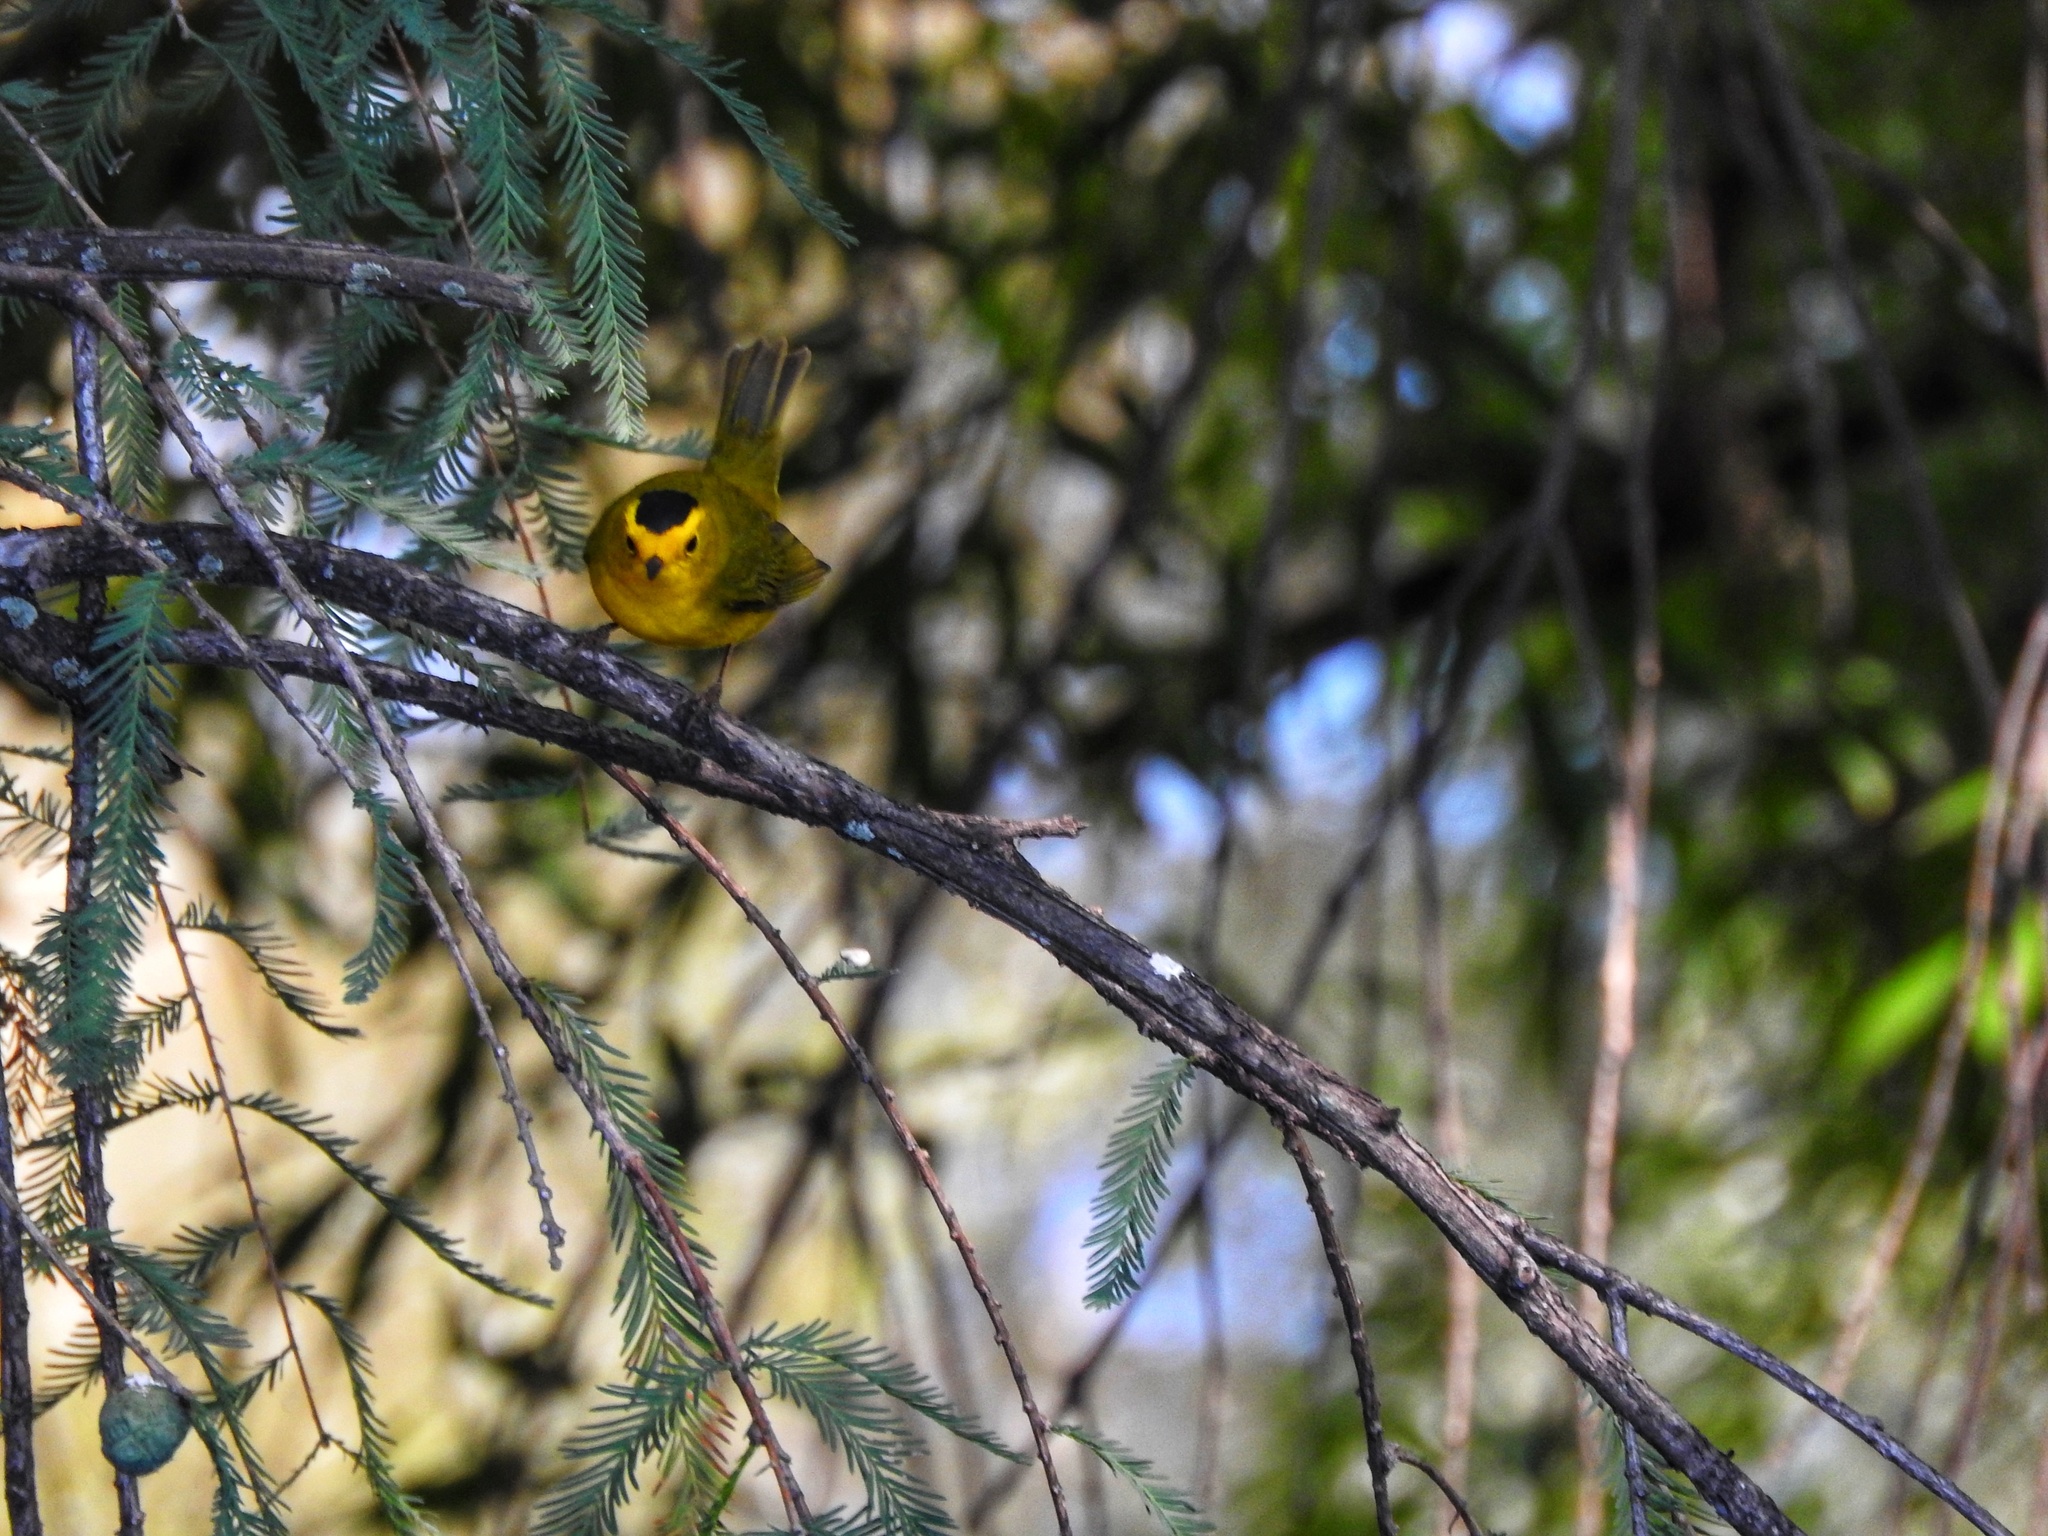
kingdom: Animalia
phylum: Chordata
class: Aves
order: Passeriformes
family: Parulidae
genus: Cardellina
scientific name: Cardellina pusilla
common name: Wilson's warbler
